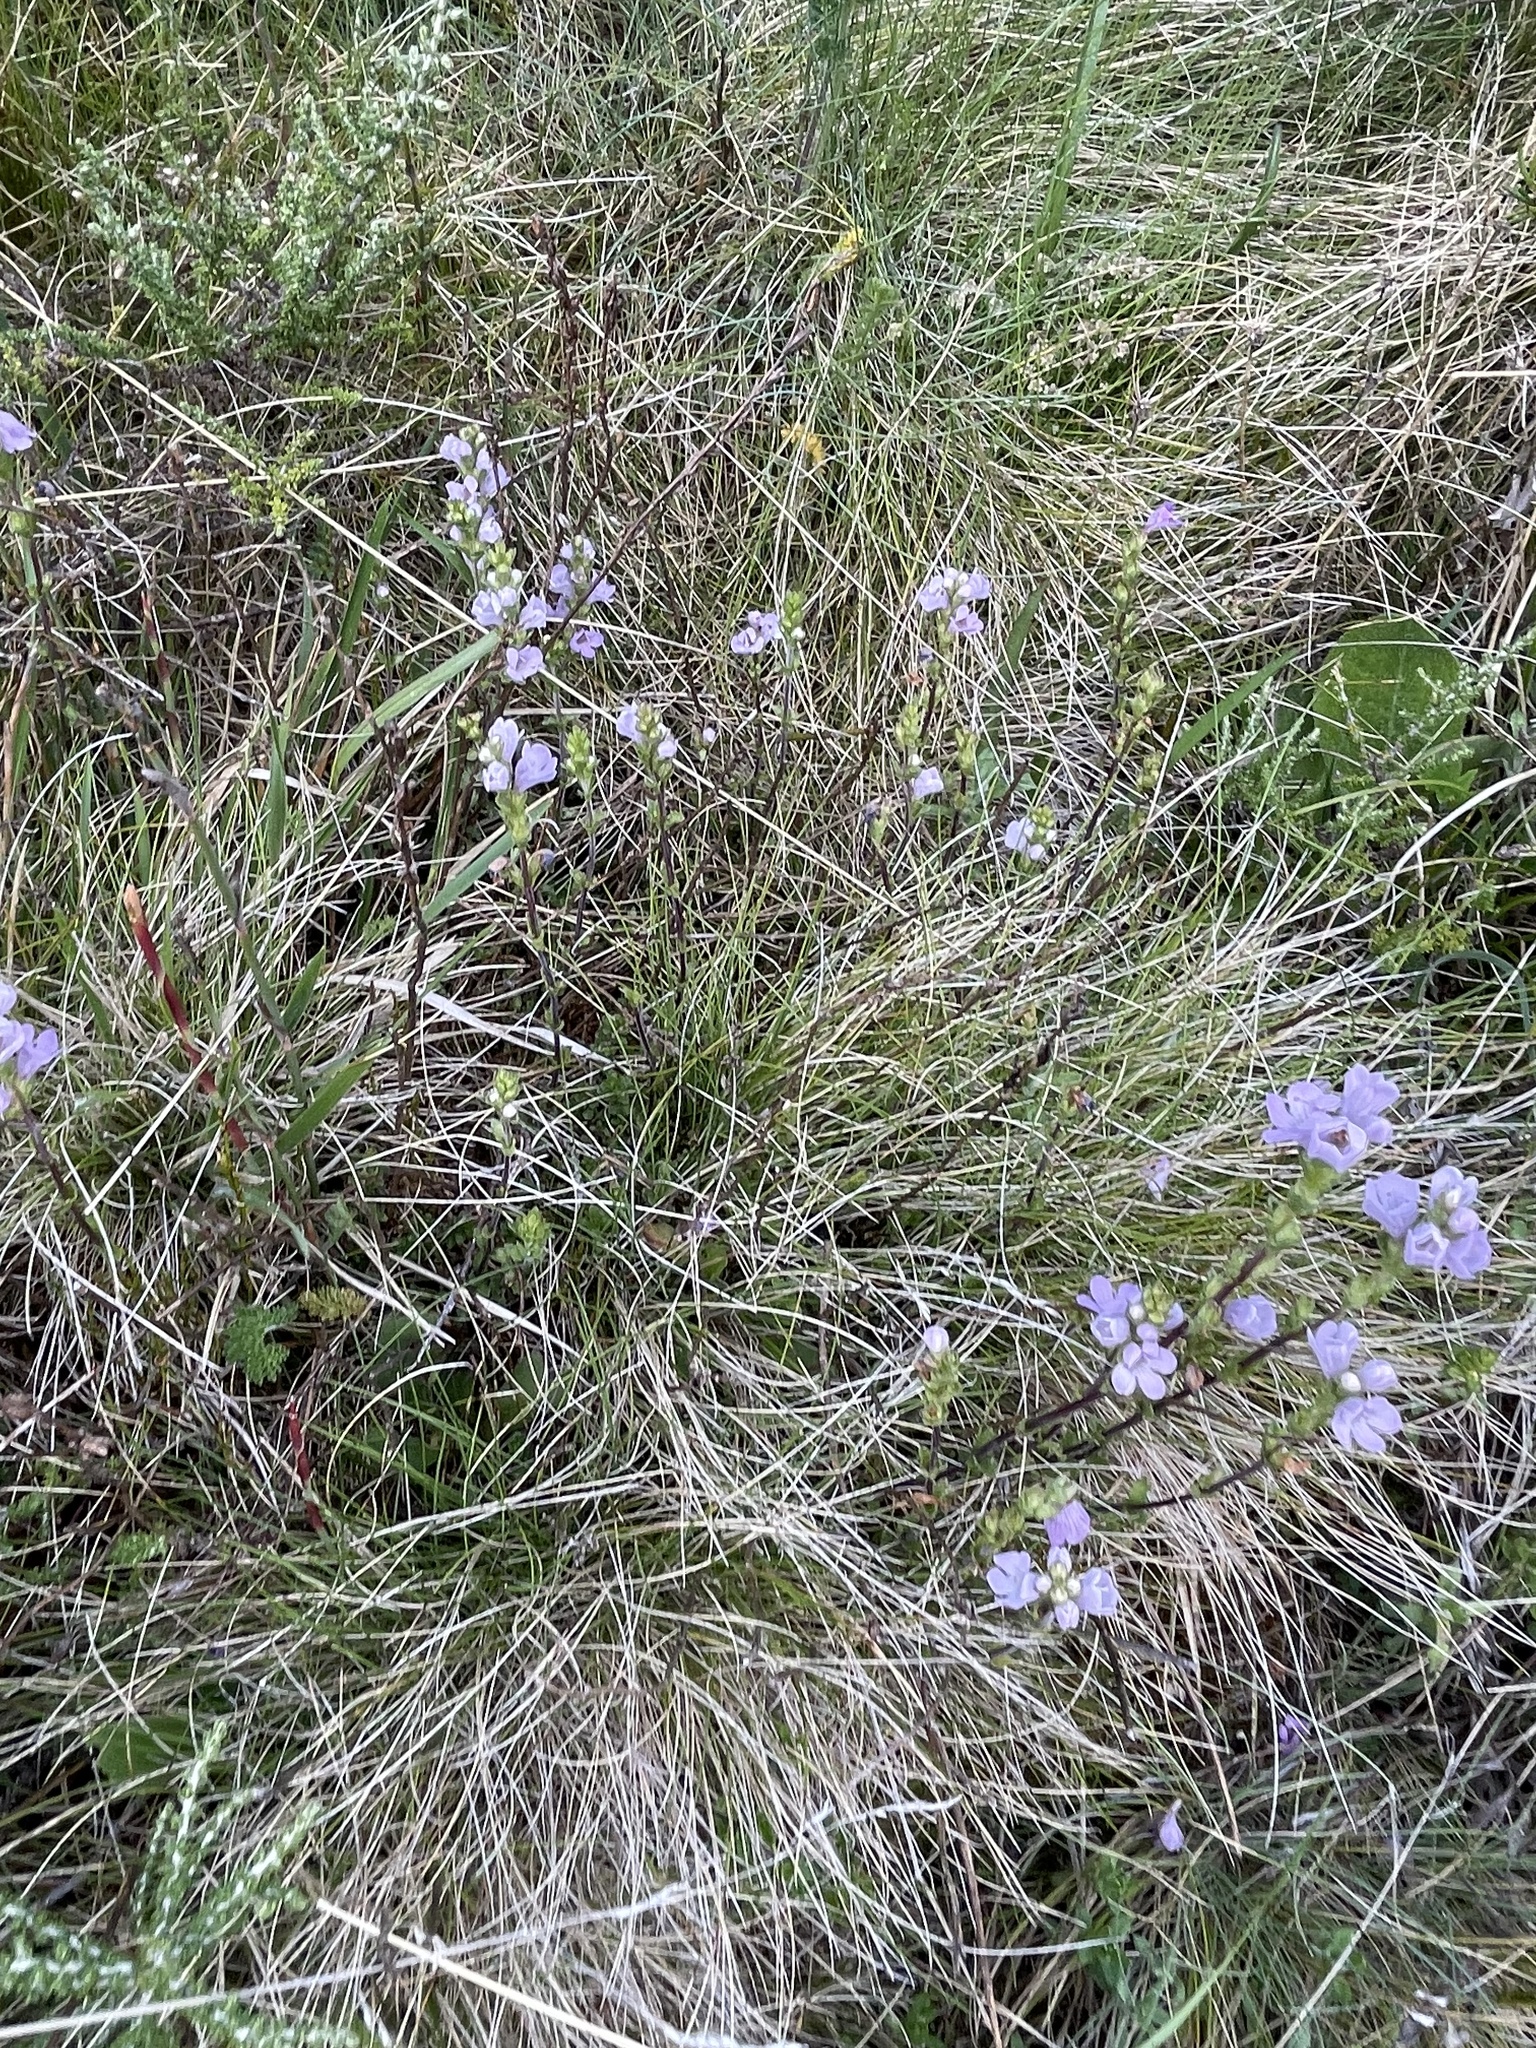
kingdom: Plantae
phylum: Tracheophyta
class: Magnoliopsida
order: Lamiales
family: Orobanchaceae
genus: Euphrasia
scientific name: Euphrasia collina
